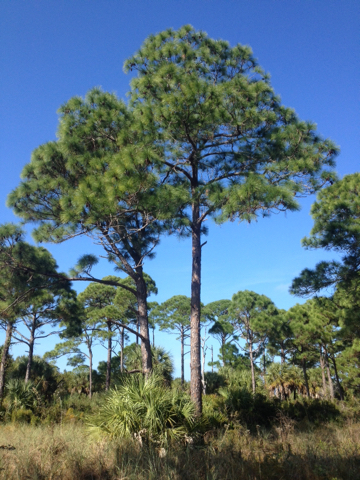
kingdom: Plantae
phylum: Tracheophyta
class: Pinopsida
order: Pinales
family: Pinaceae
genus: Pinus
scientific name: Pinus elliottii
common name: Slash pine
